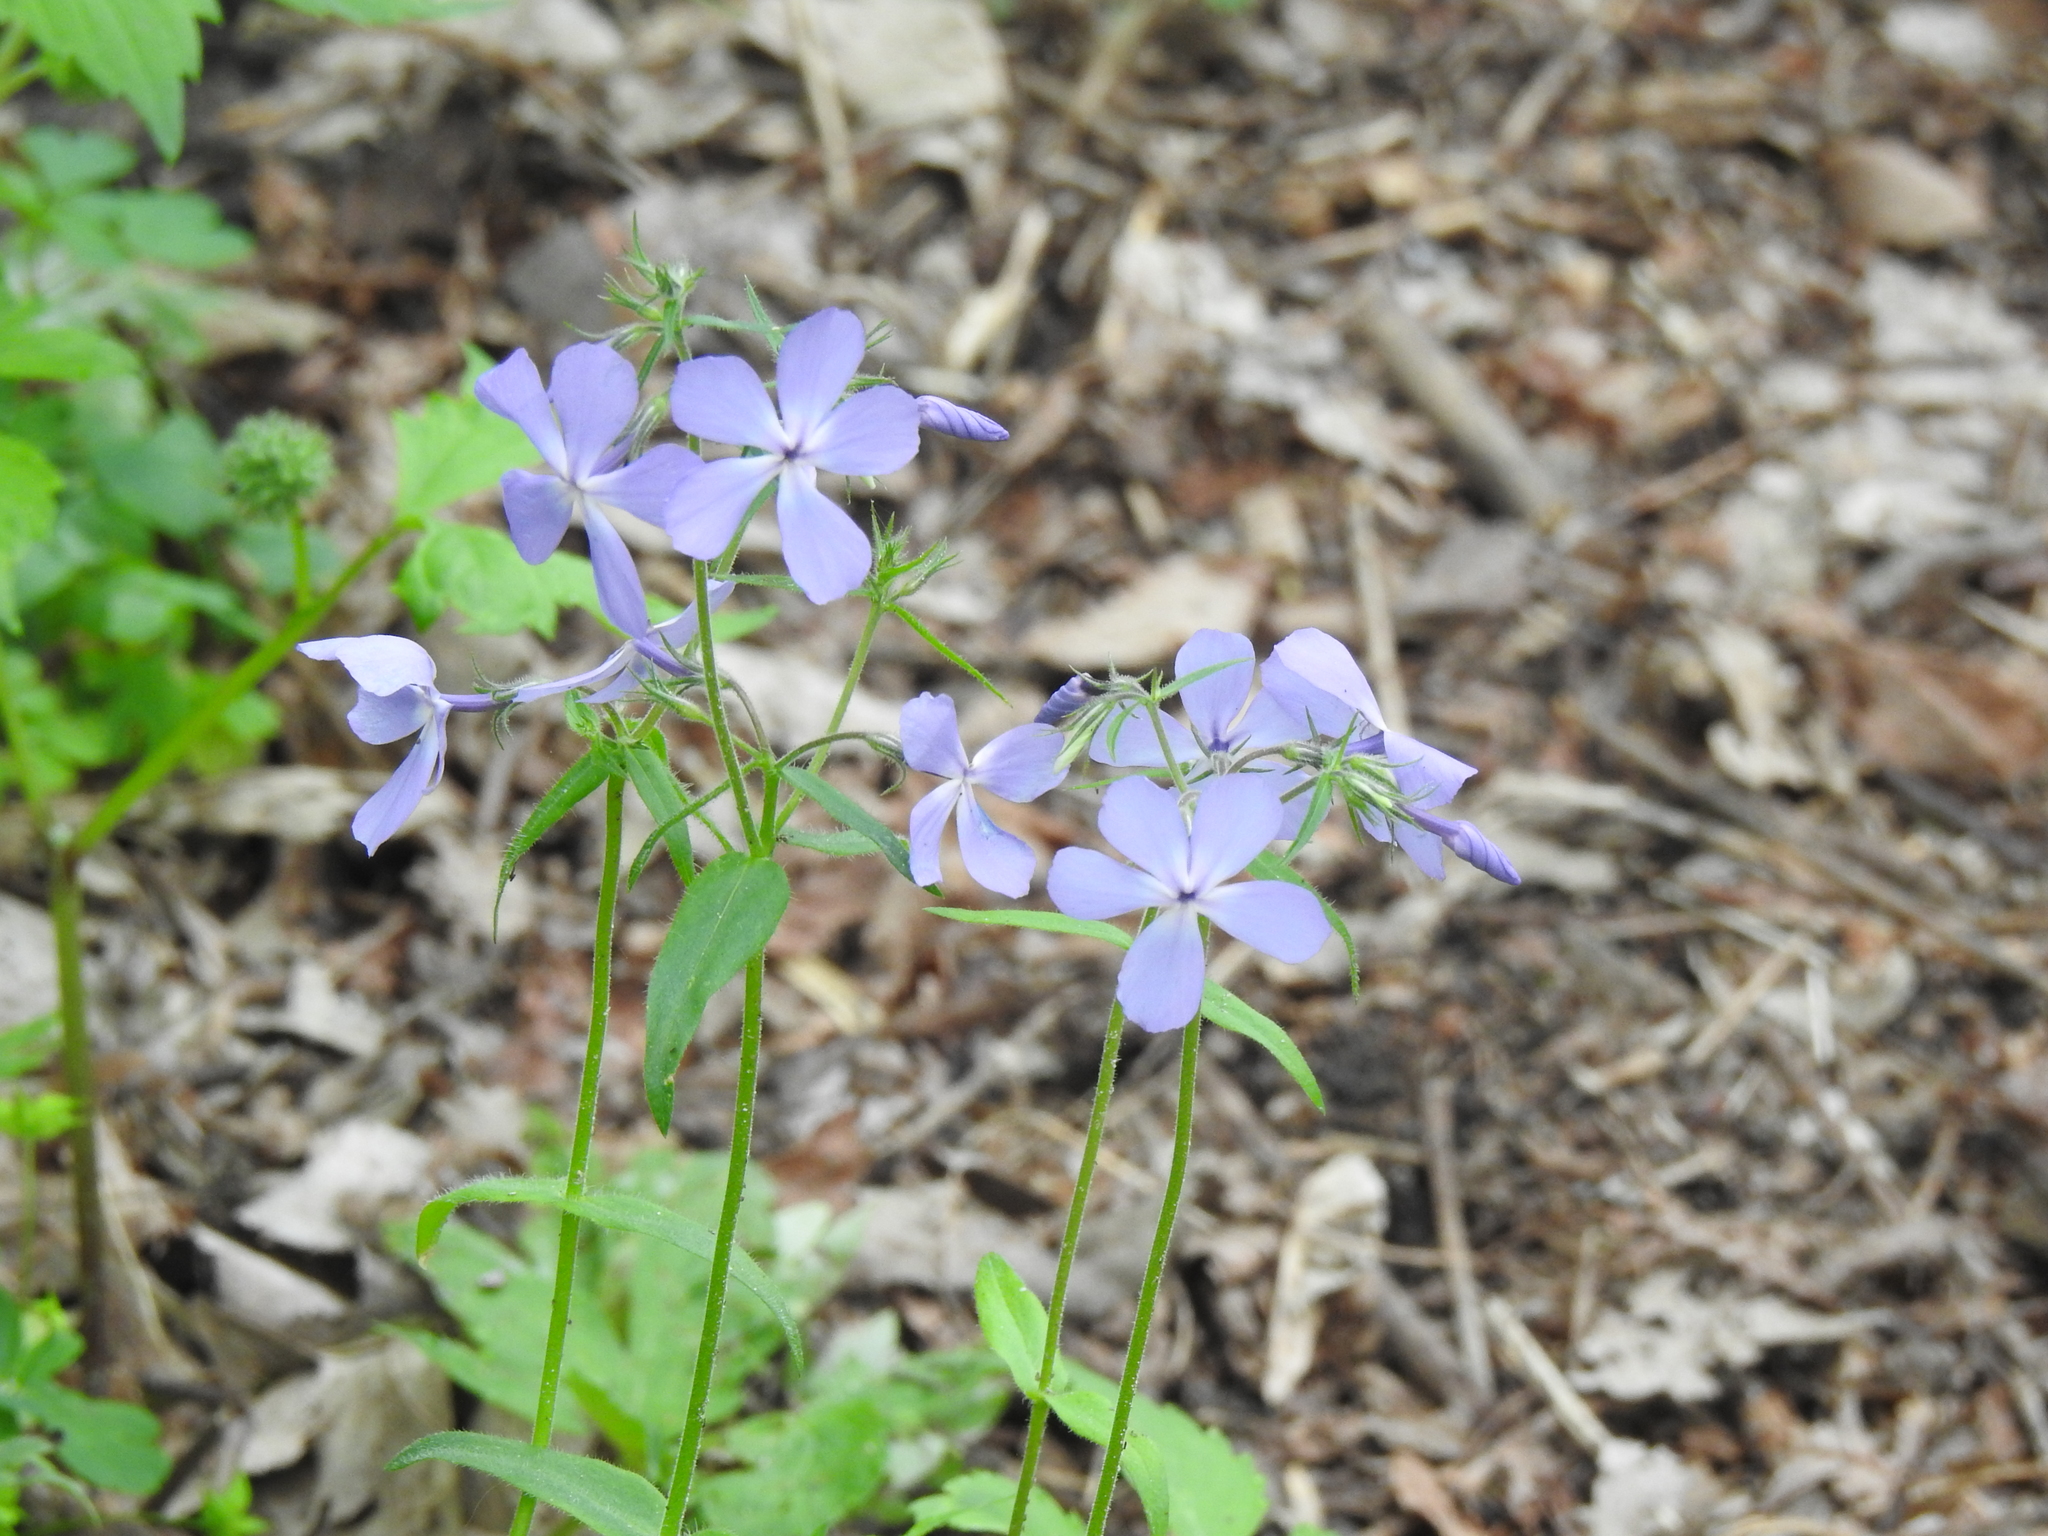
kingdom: Plantae
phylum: Tracheophyta
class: Magnoliopsida
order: Ericales
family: Polemoniaceae
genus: Phlox
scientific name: Phlox divaricata
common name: Blue phlox
